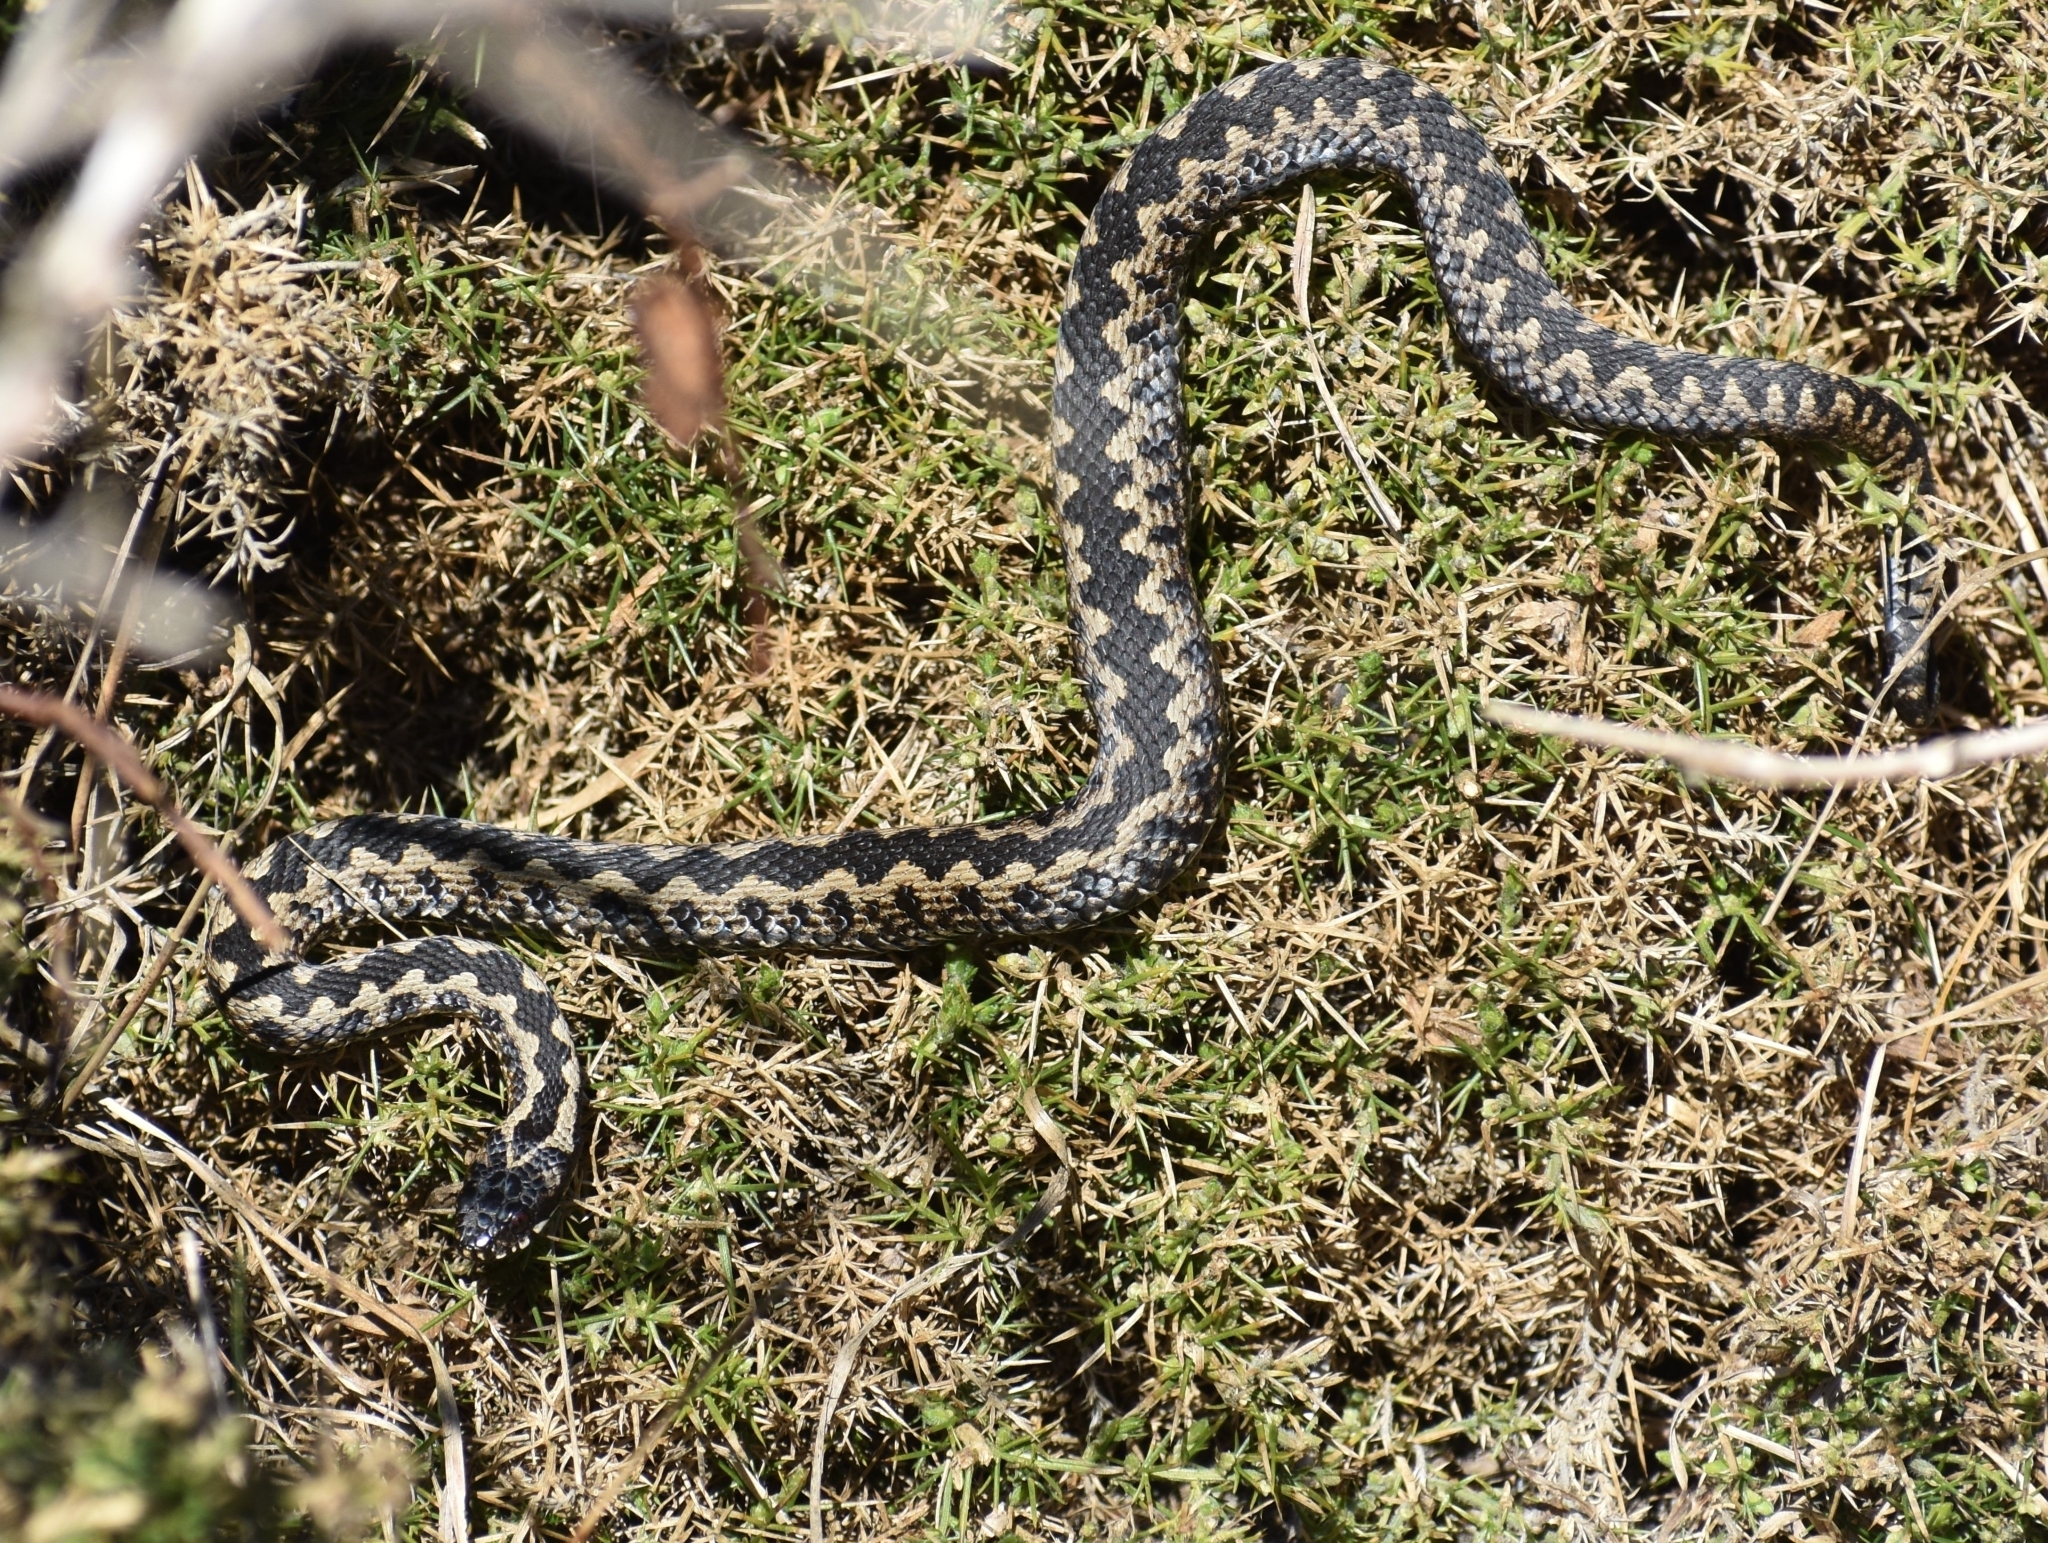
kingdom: Animalia
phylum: Chordata
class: Squamata
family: Viperidae
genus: Vipera
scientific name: Vipera berus
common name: Adder
